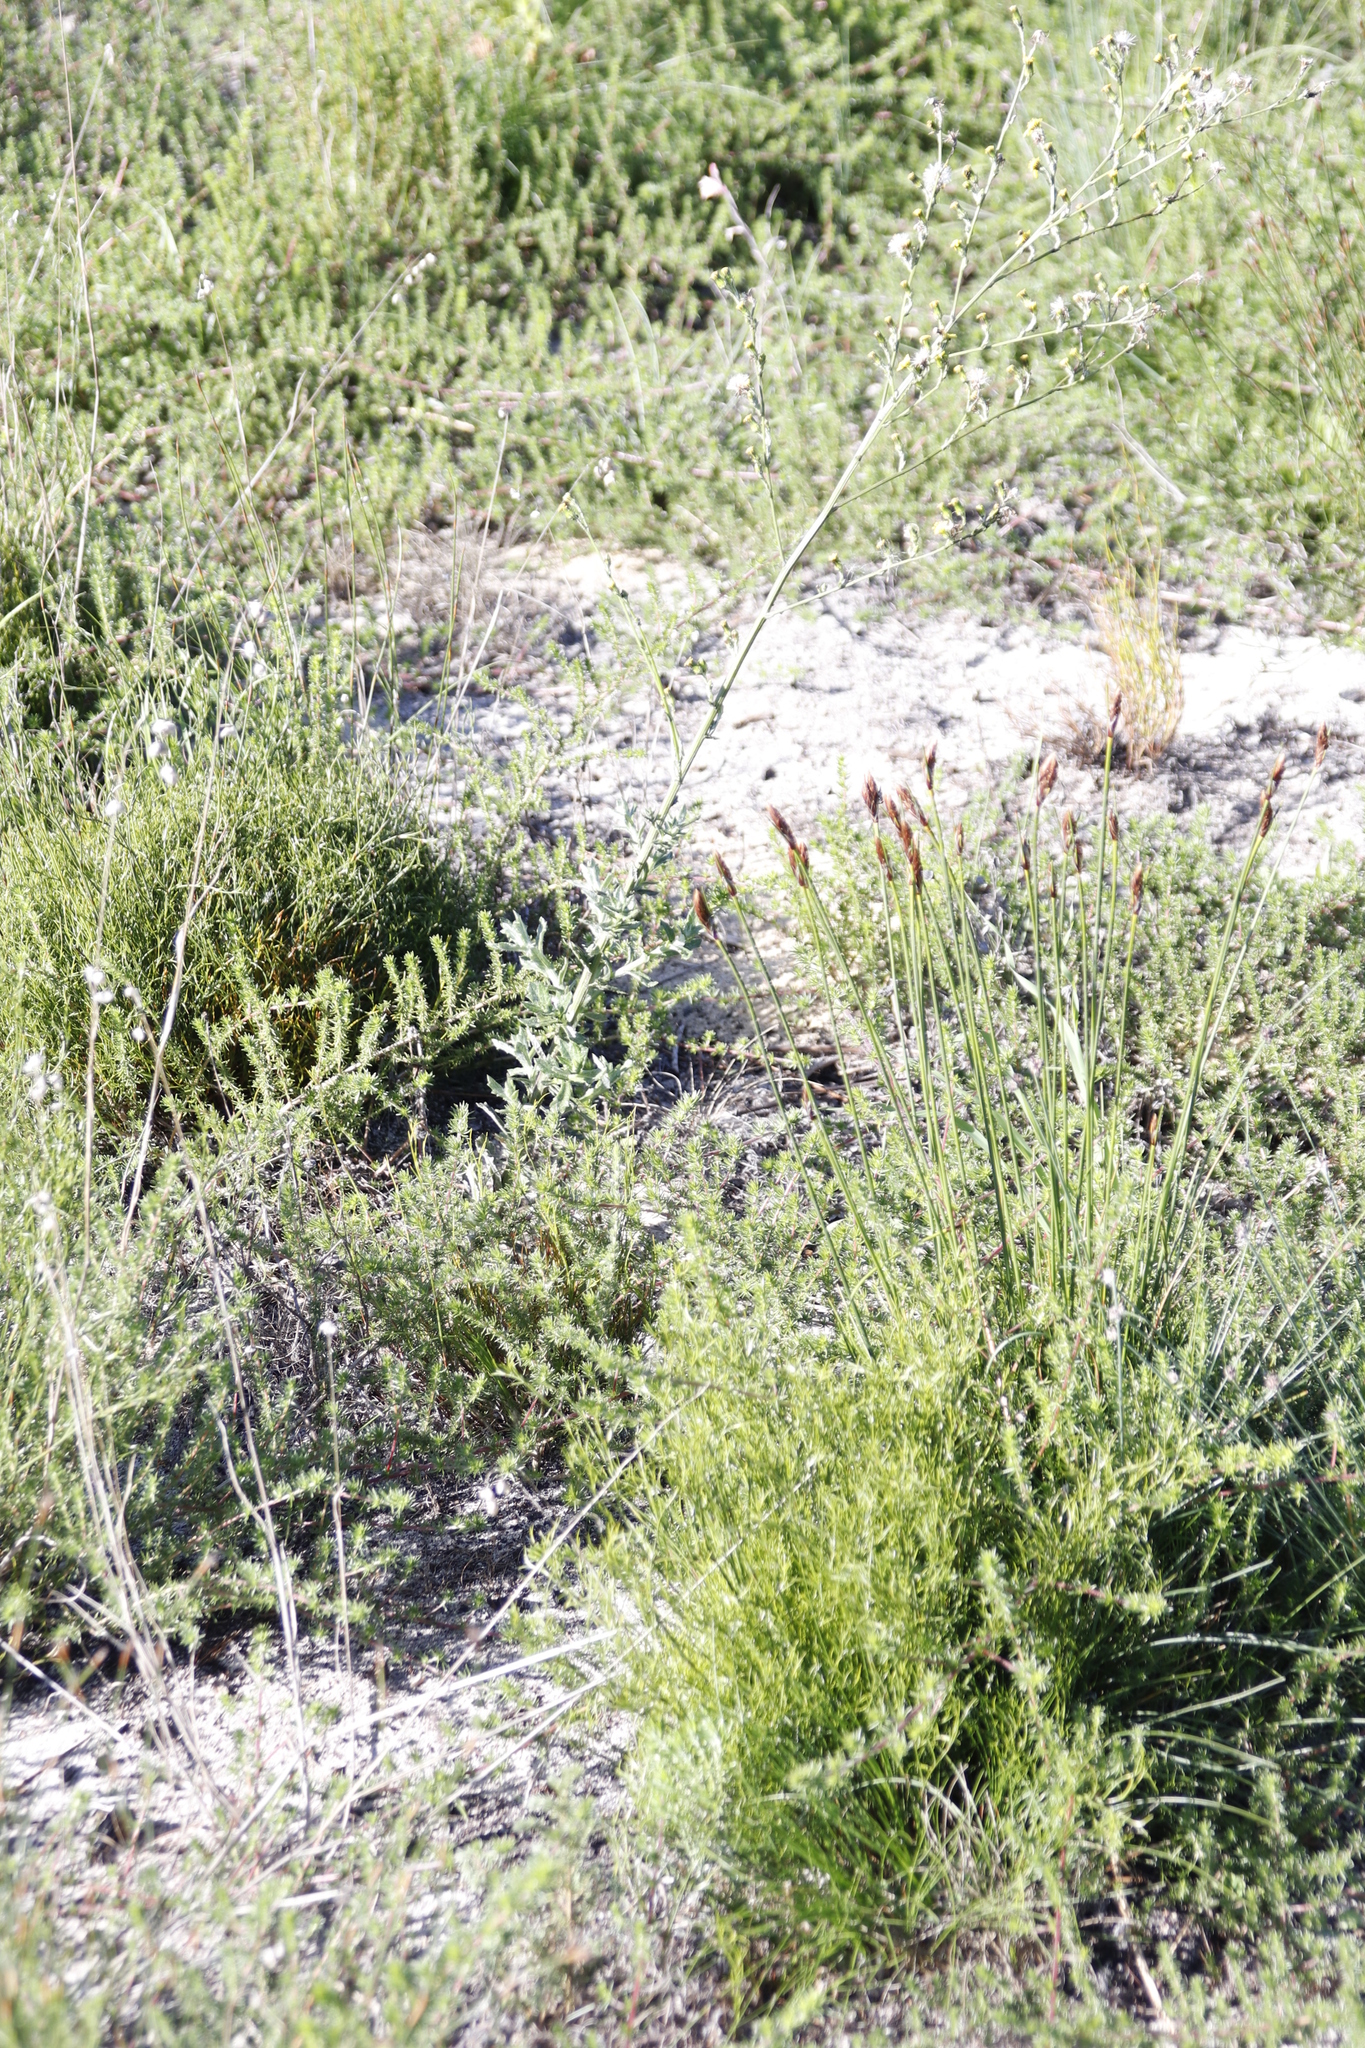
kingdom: Plantae
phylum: Tracheophyta
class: Liliopsida
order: Poales
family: Cyperaceae
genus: Ficinia
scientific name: Ficinia deusta
